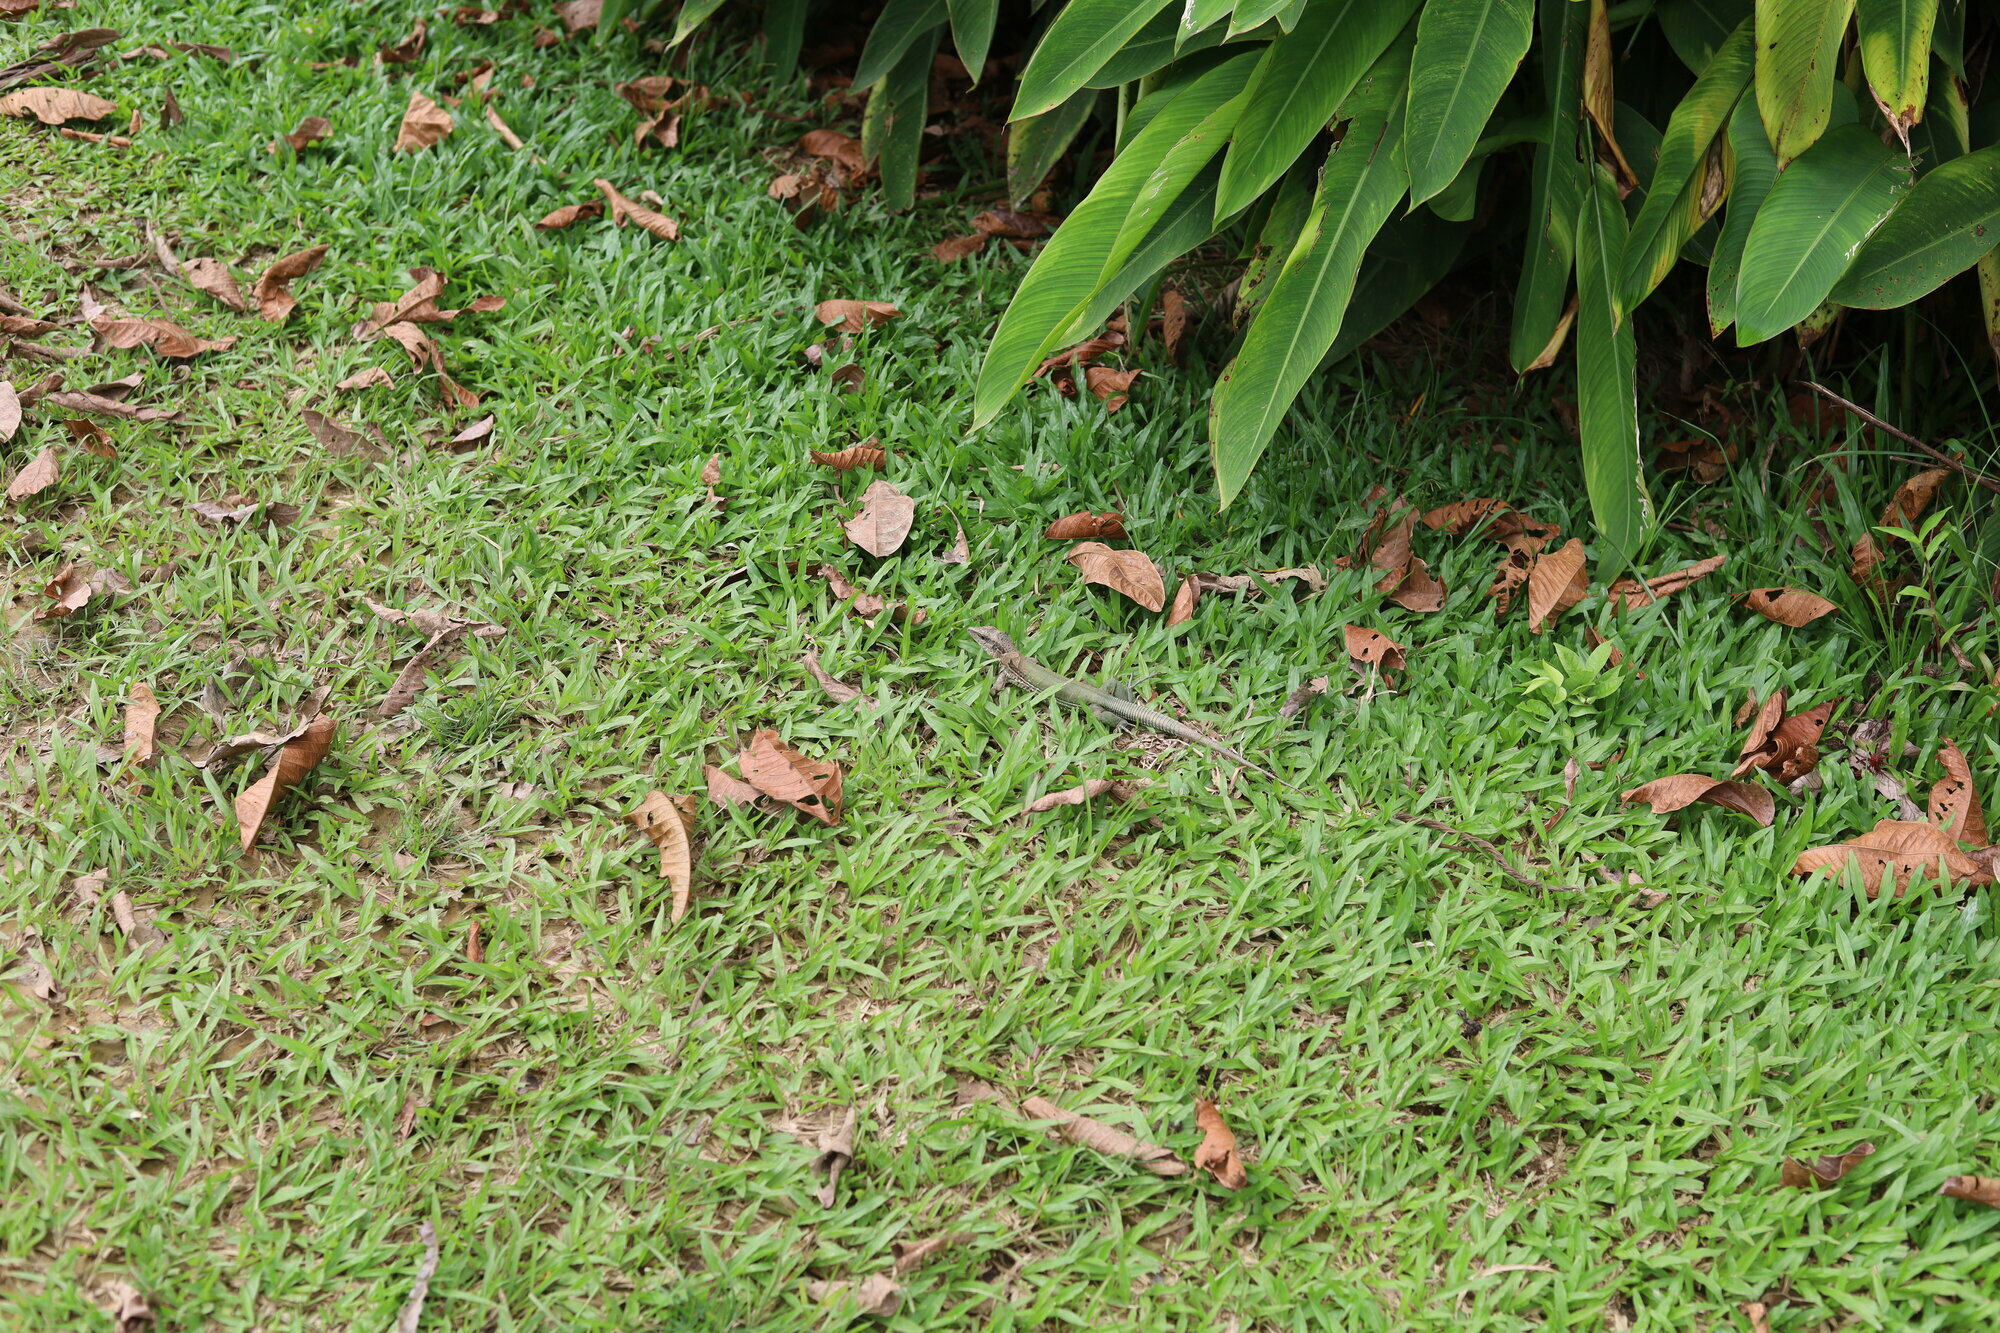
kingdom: Animalia
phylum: Chordata
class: Squamata
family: Teiidae
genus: Ameiva
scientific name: Ameiva ameiva
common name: Giant ameiva
